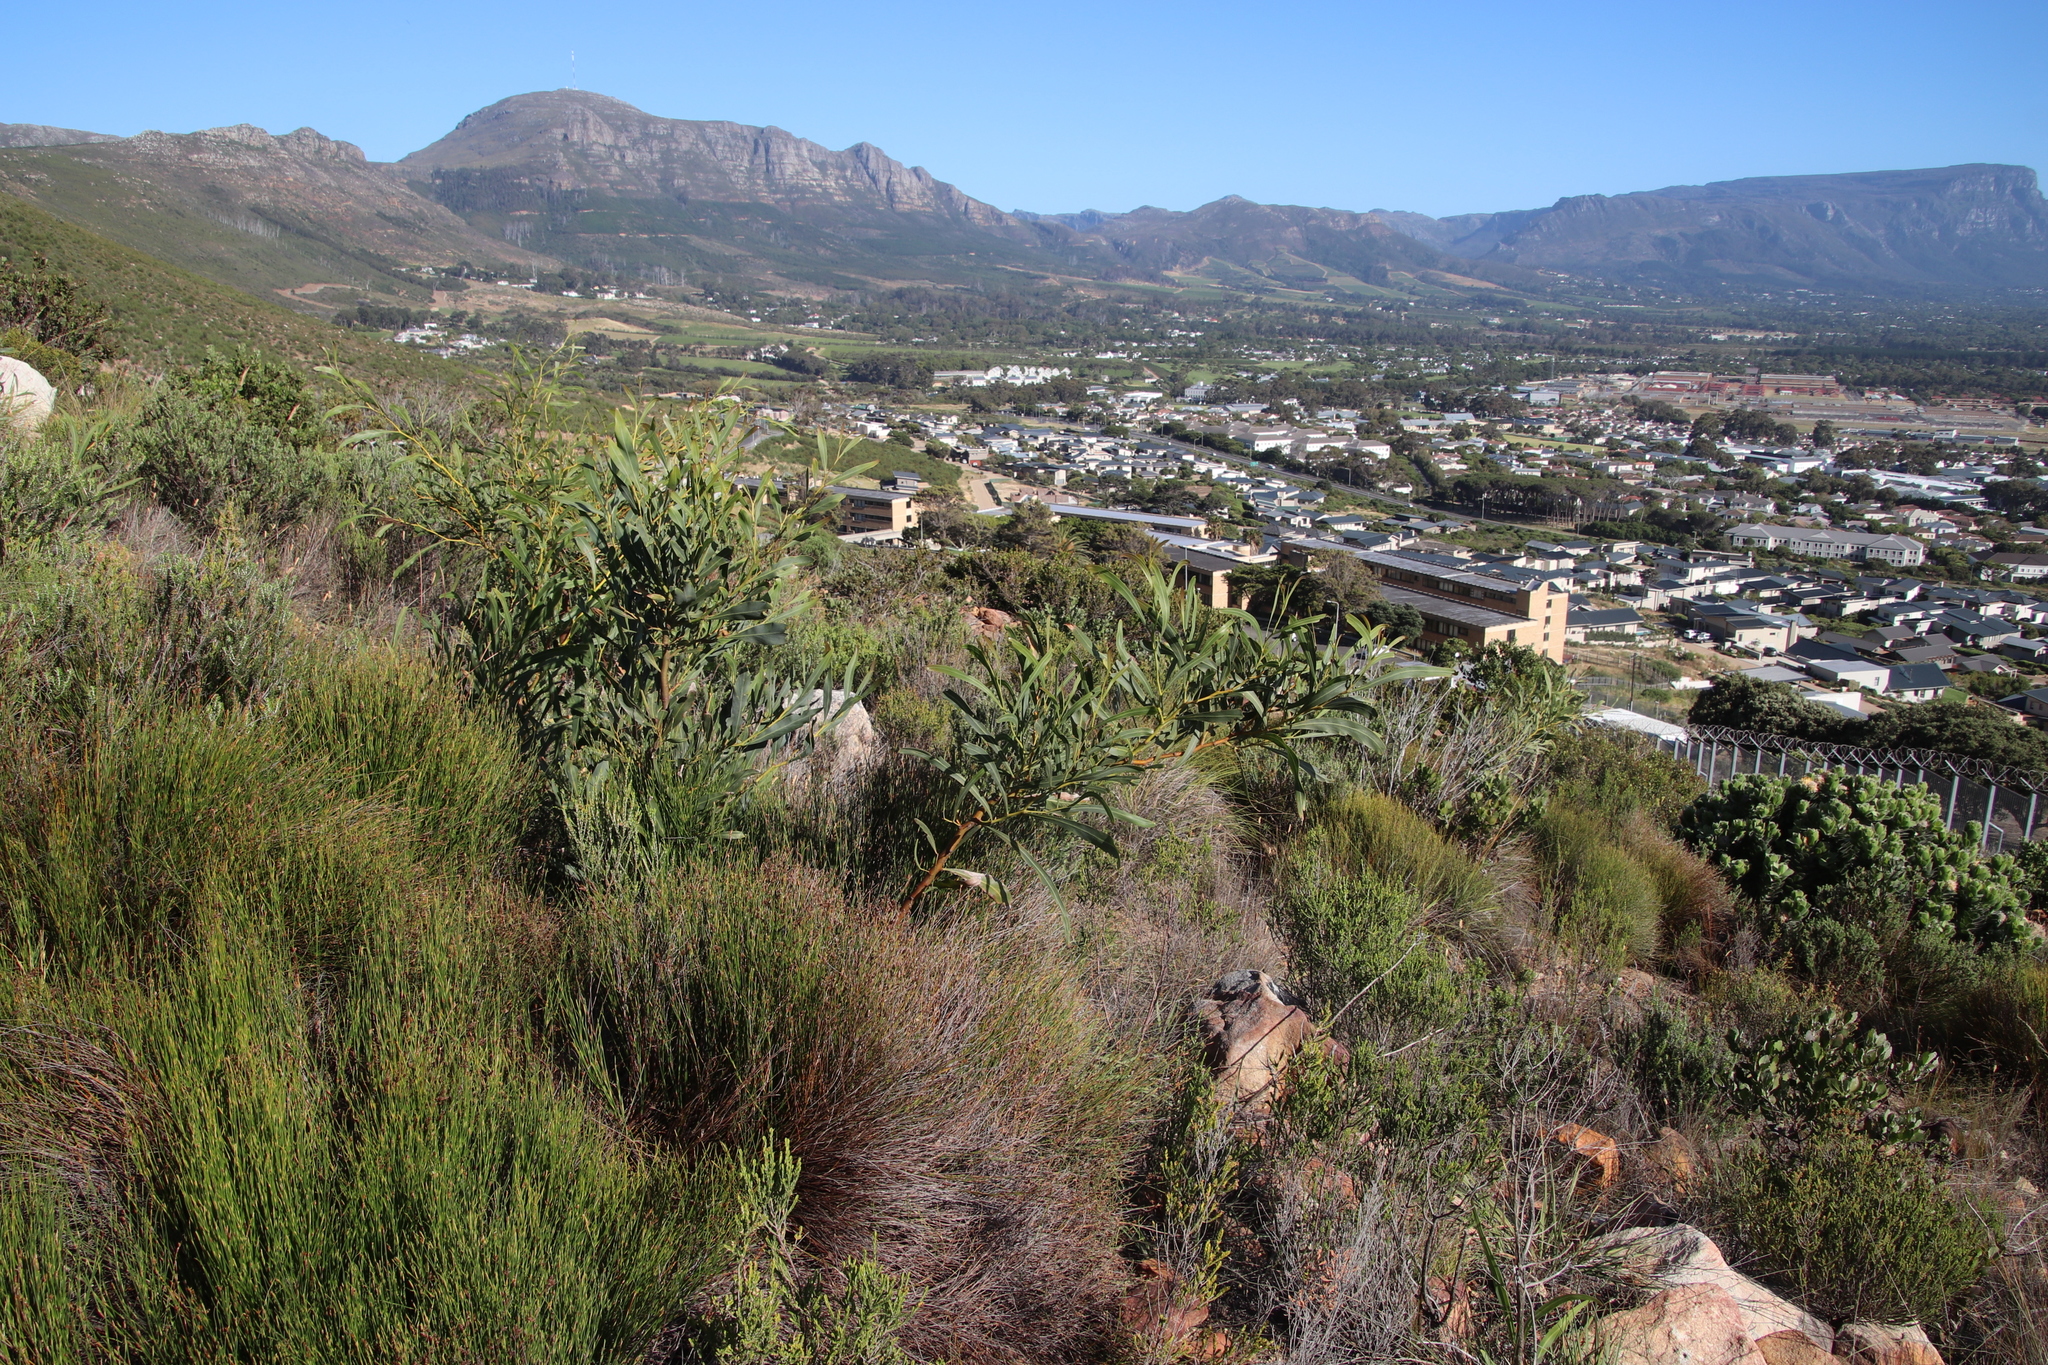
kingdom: Plantae
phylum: Tracheophyta
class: Magnoliopsida
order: Fabales
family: Fabaceae
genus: Acacia
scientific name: Acacia saligna
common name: Orange wattle
